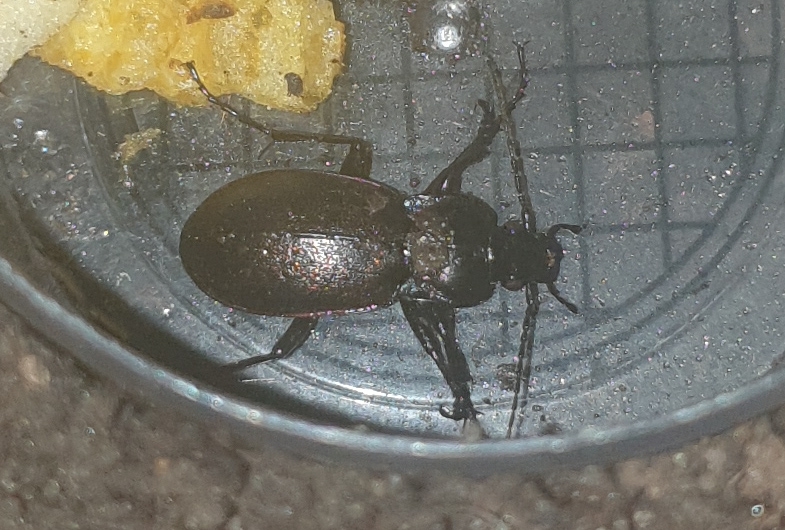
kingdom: Animalia
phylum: Arthropoda
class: Insecta
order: Coleoptera
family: Carabidae
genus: Carabus
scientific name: Carabus nemoralis
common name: European ground beetle
